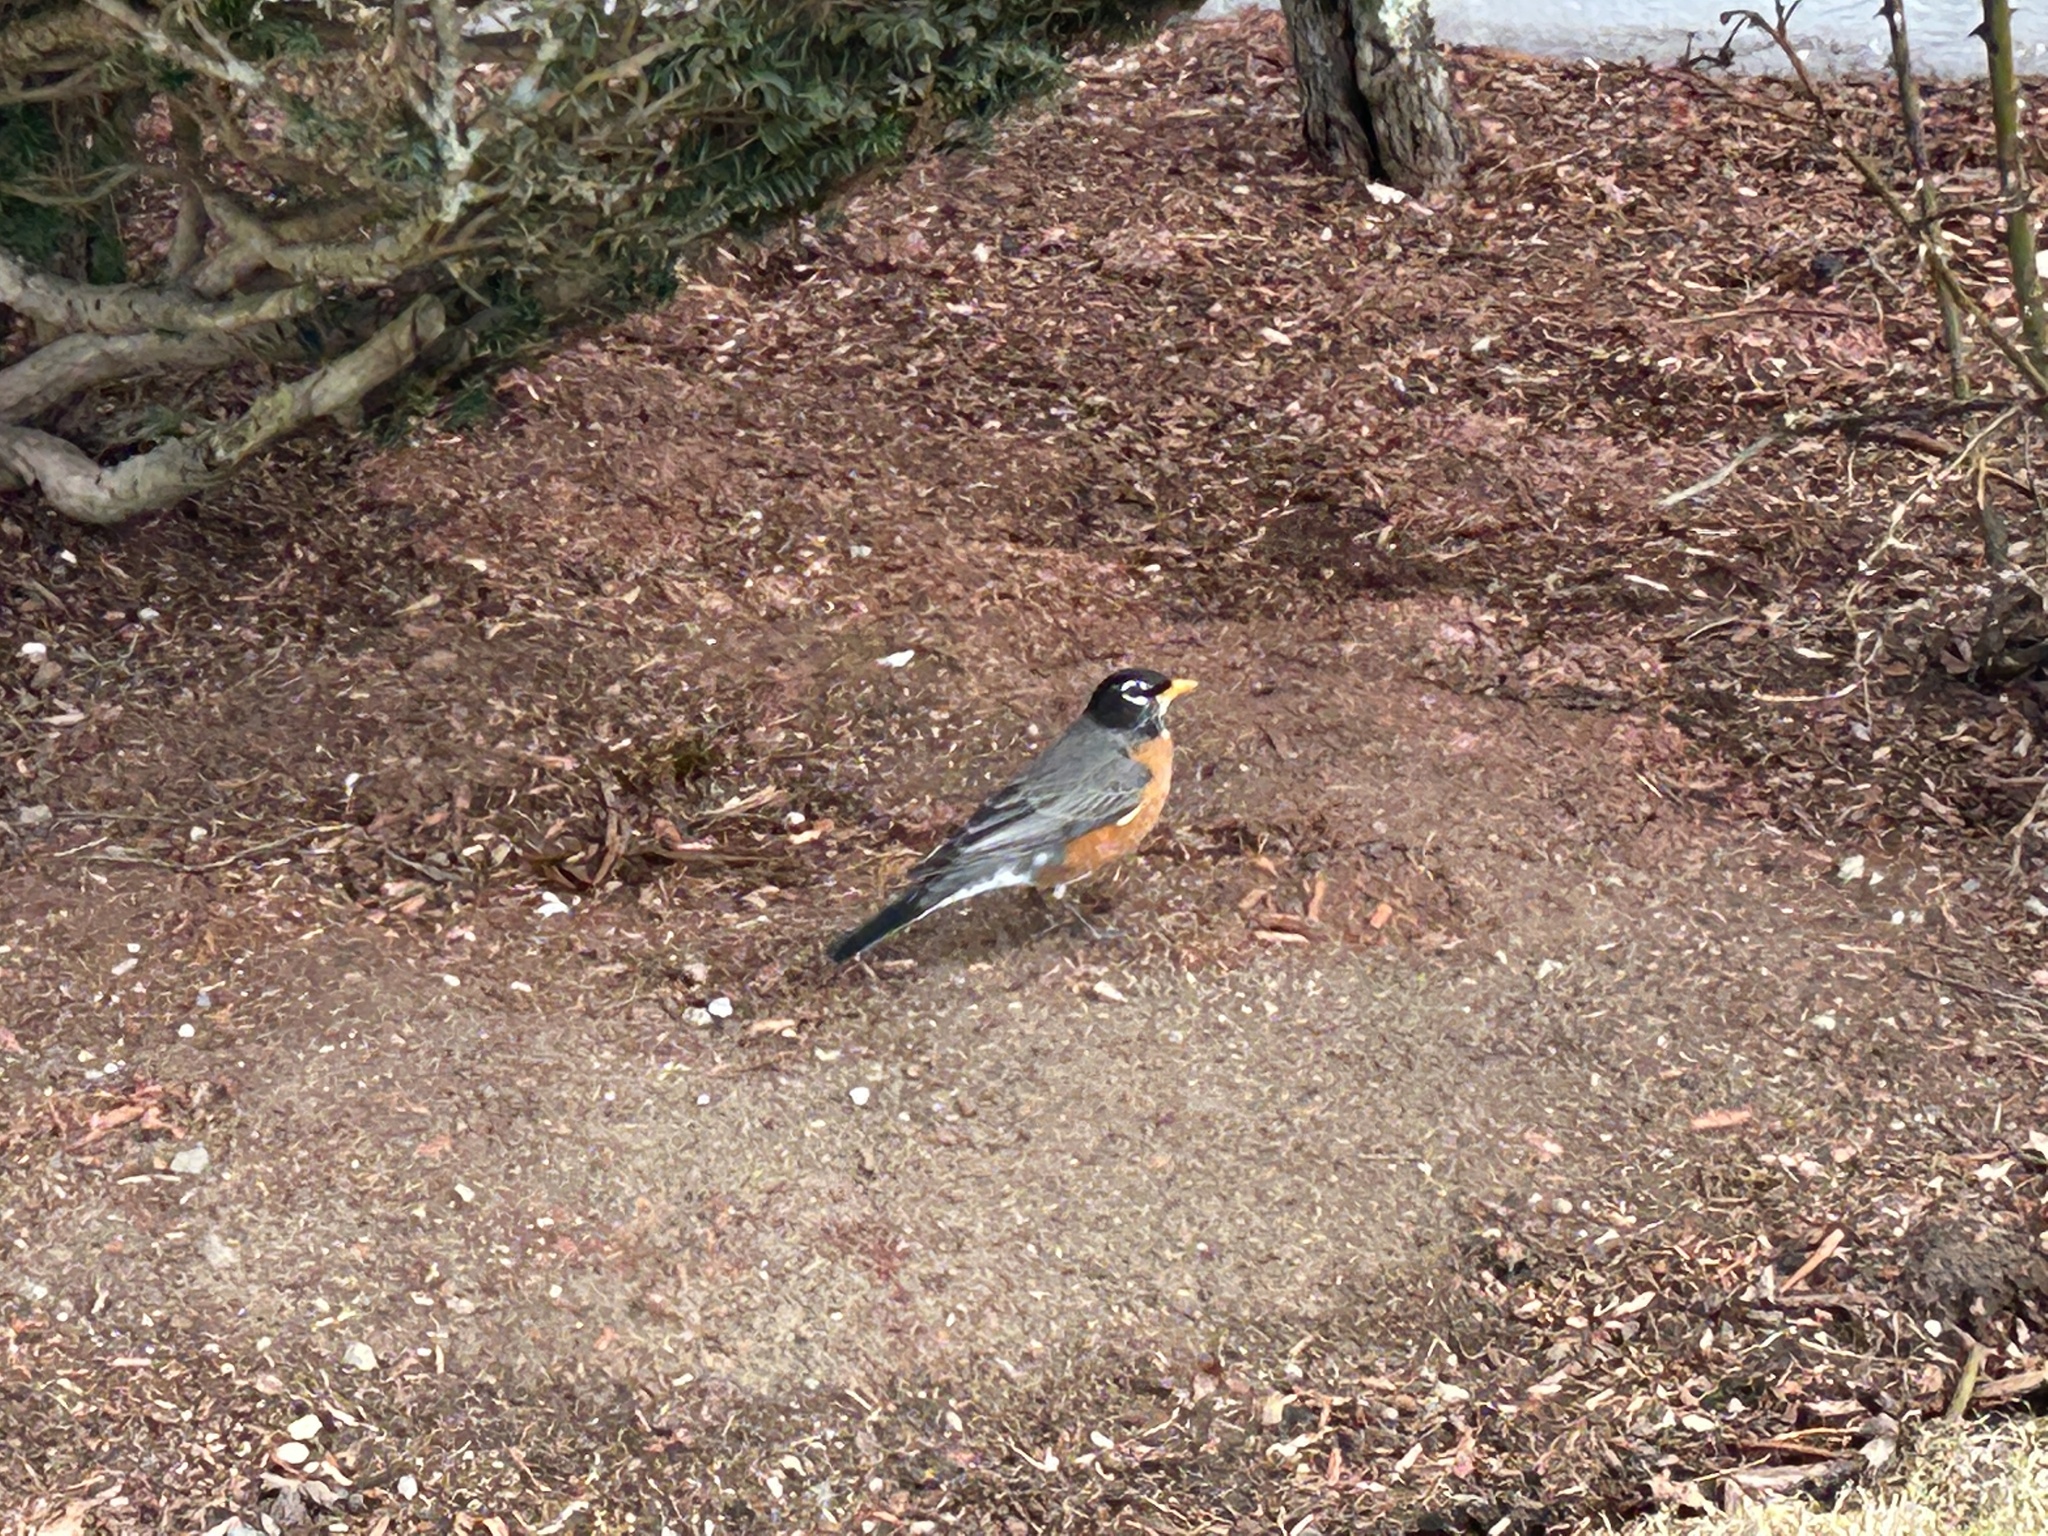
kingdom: Animalia
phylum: Chordata
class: Aves
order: Passeriformes
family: Turdidae
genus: Turdus
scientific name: Turdus migratorius
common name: American robin
